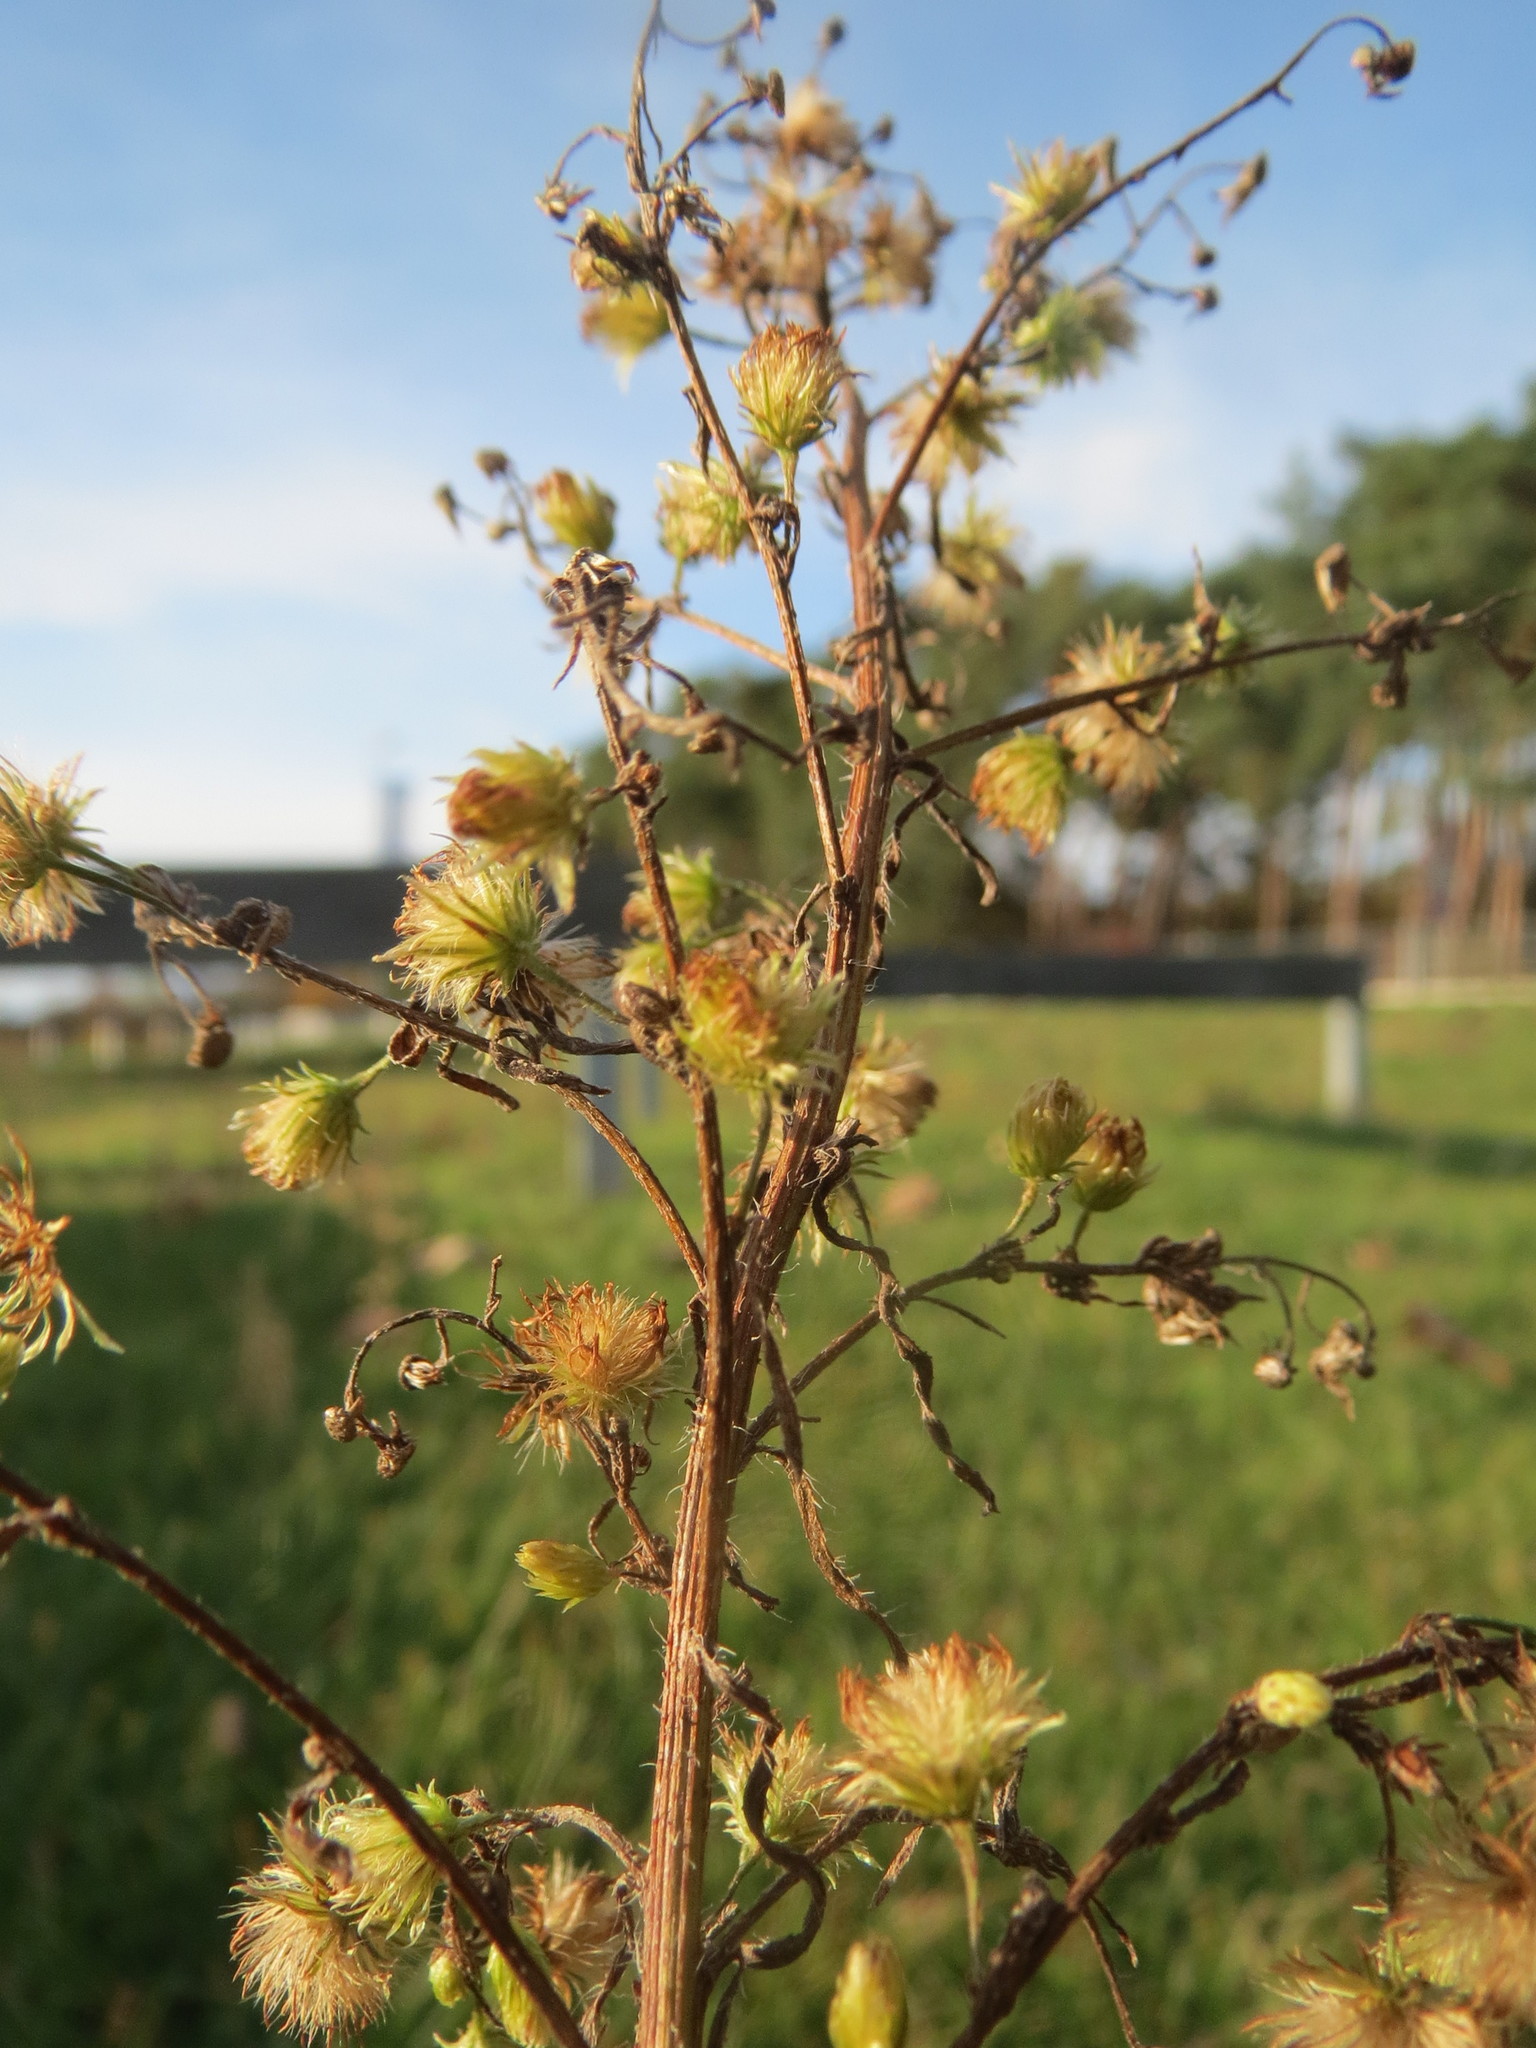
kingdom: Plantae
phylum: Tracheophyta
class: Magnoliopsida
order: Asterales
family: Asteraceae
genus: Erigeron
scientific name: Erigeron canadensis
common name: Canadian fleabane
